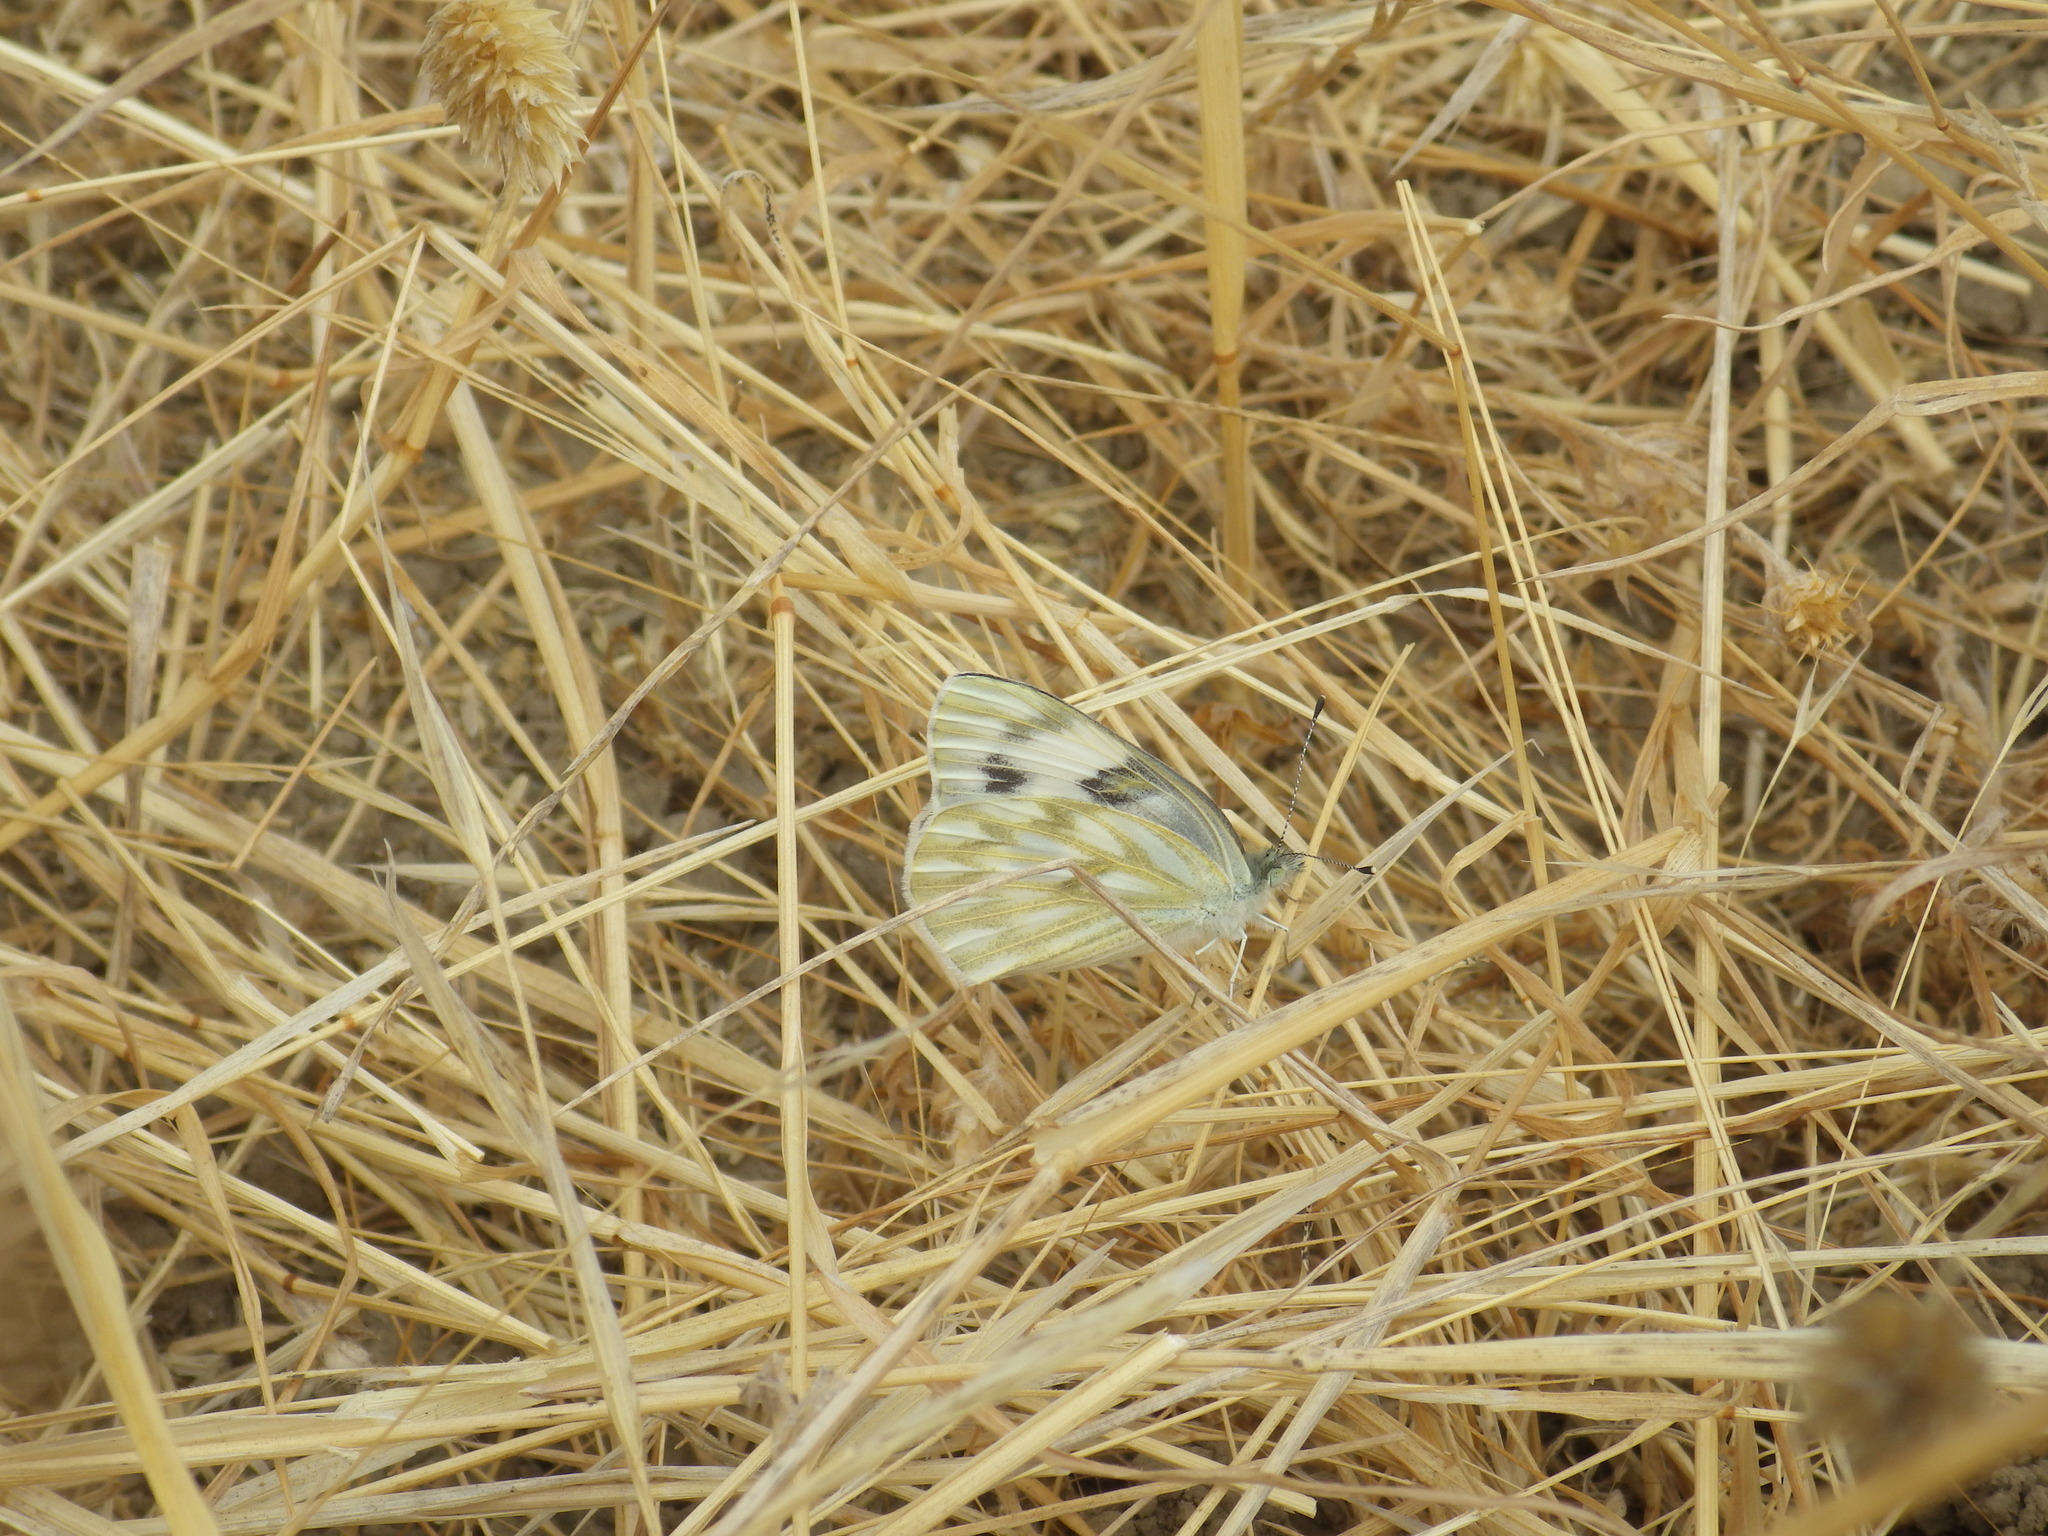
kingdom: Animalia
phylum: Arthropoda
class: Insecta
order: Lepidoptera
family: Pieridae
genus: Pontia
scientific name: Pontia protodice
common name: Checkered white
